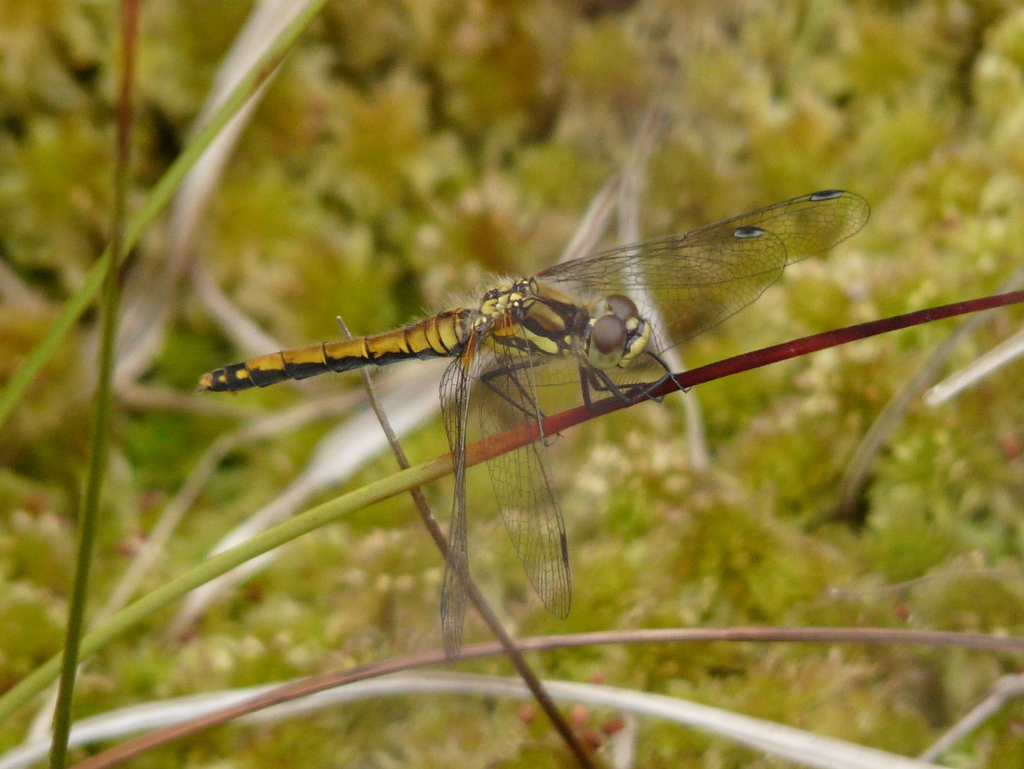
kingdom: Animalia
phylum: Arthropoda
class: Insecta
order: Odonata
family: Libellulidae
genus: Sympetrum
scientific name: Sympetrum danae
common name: Black darter
